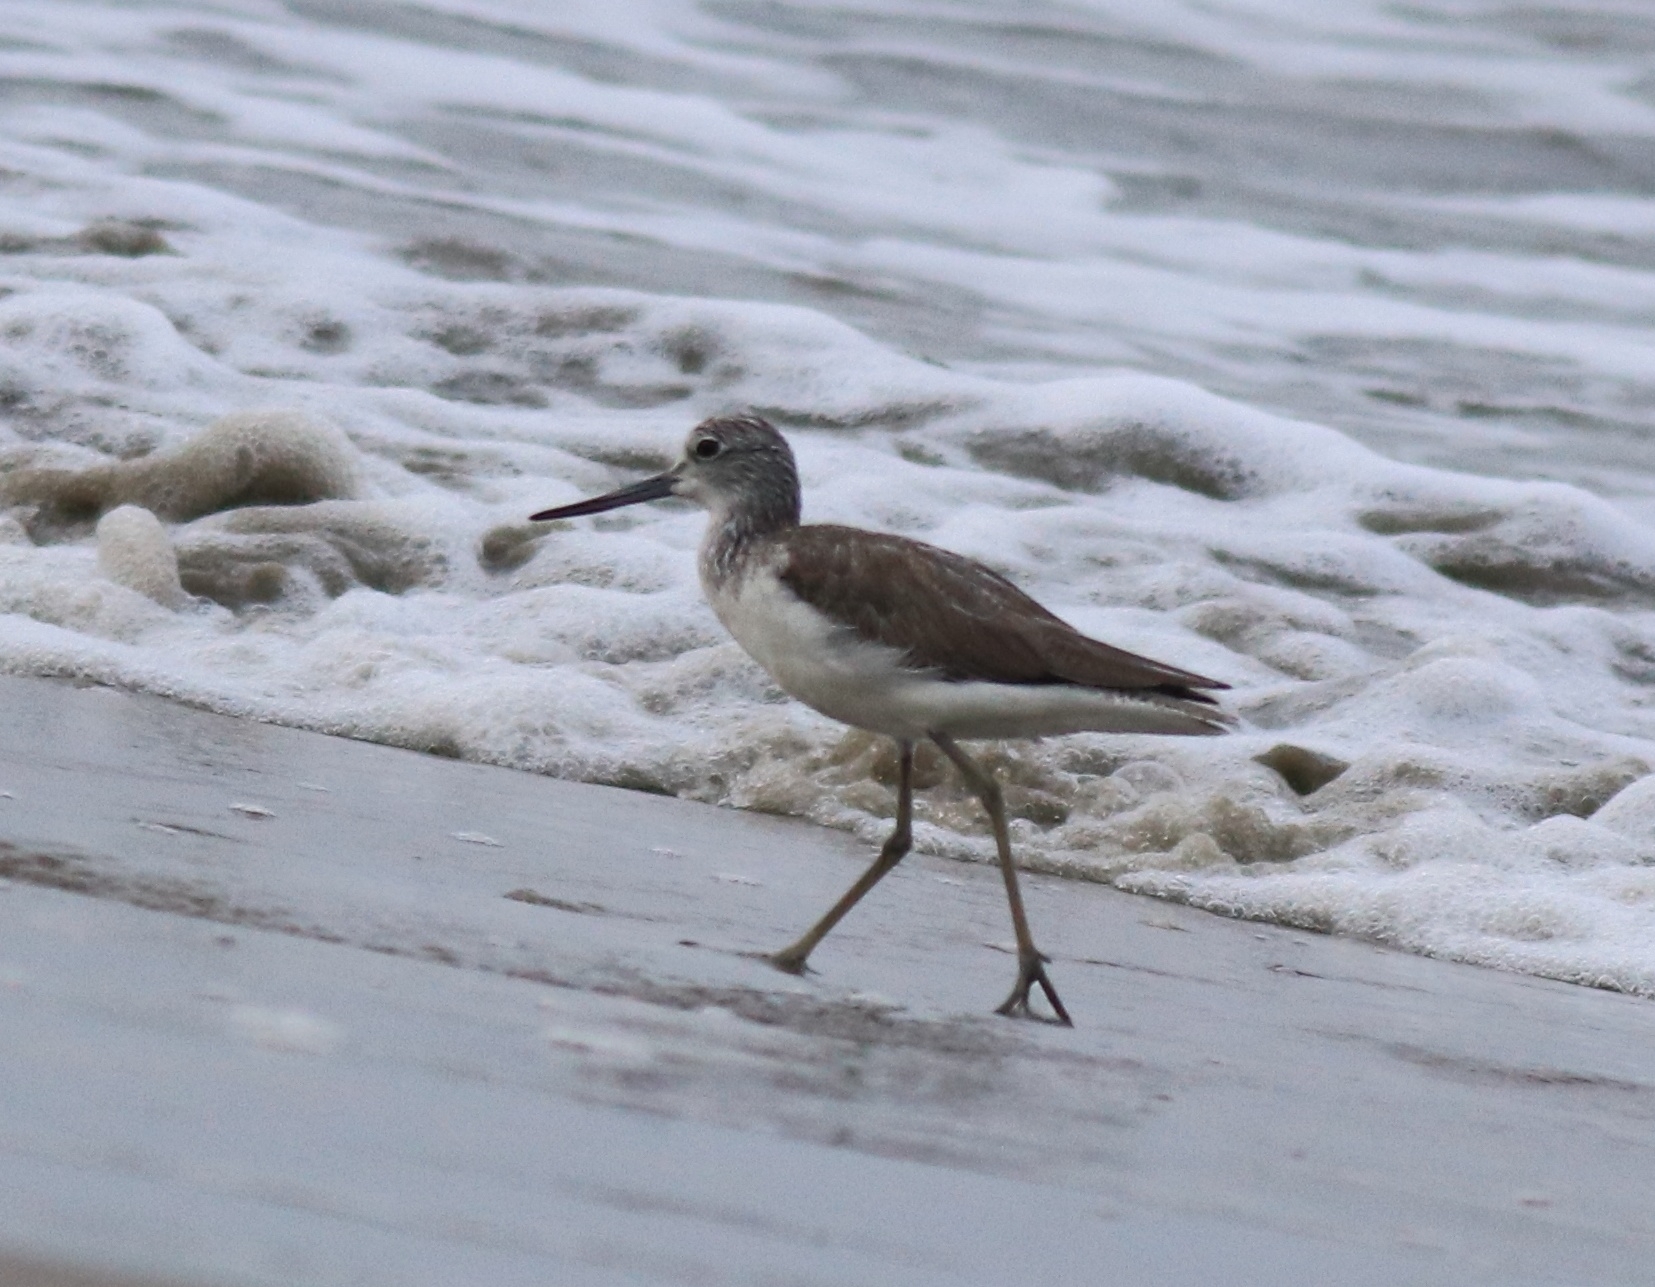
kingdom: Animalia
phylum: Chordata
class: Aves
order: Charadriiformes
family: Scolopacidae
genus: Tringa
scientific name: Tringa nebularia
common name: Common greenshank
